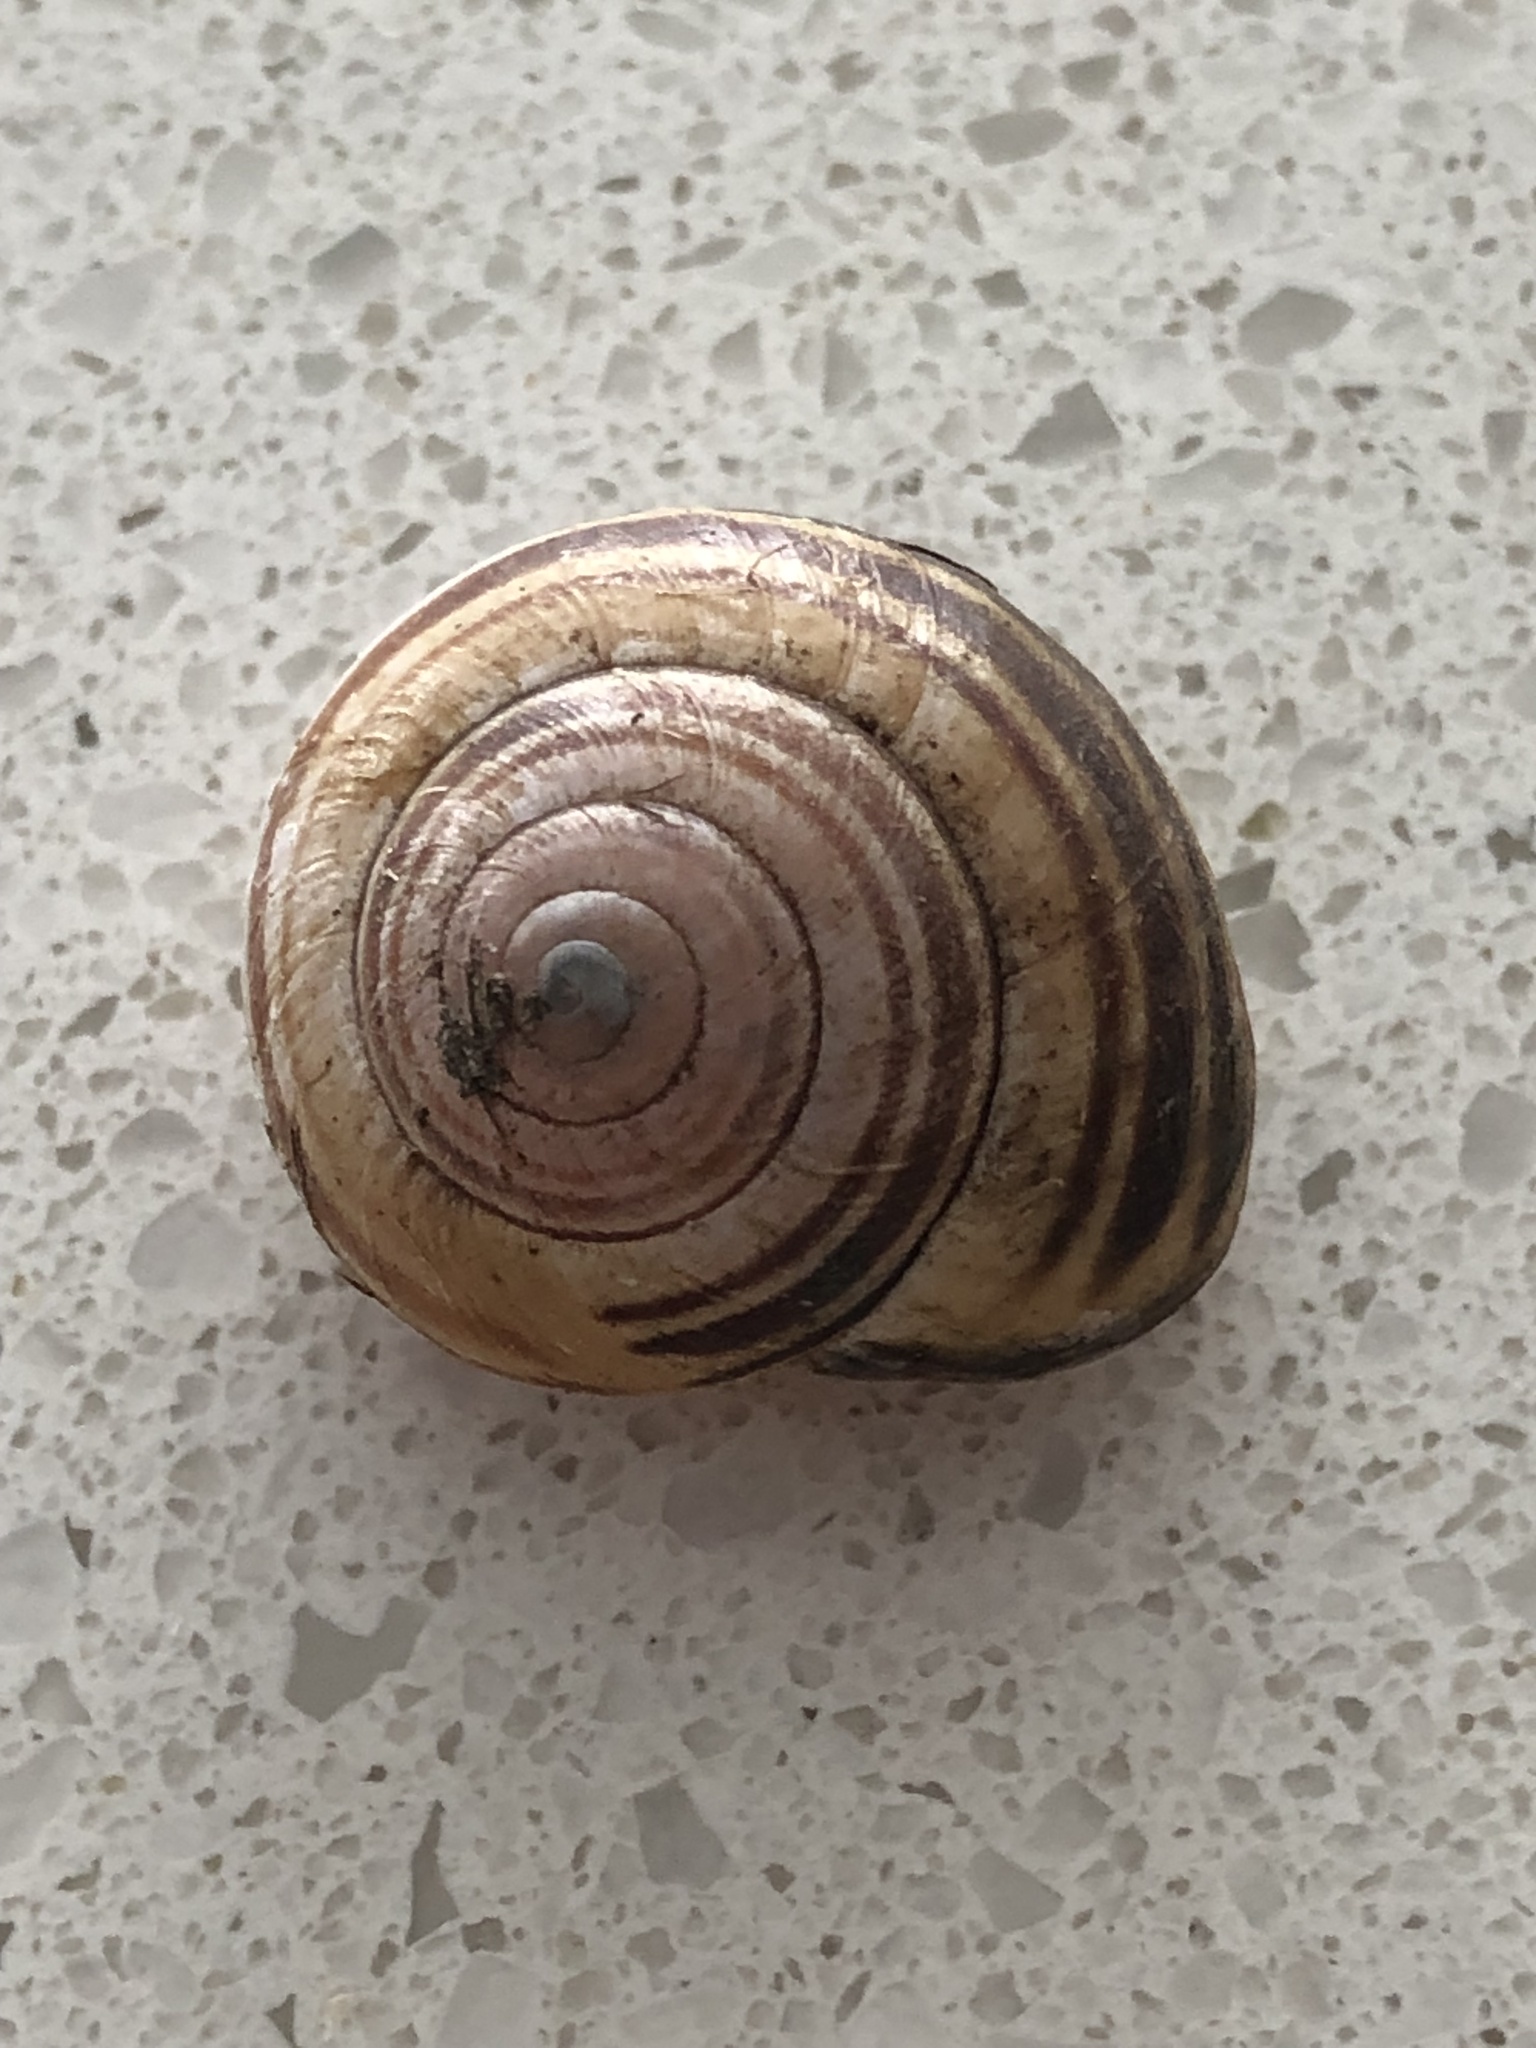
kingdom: Animalia
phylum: Mollusca
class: Gastropoda
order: Stylommatophora
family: Helicidae
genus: Cepaea
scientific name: Cepaea nemoralis
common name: Grovesnail
